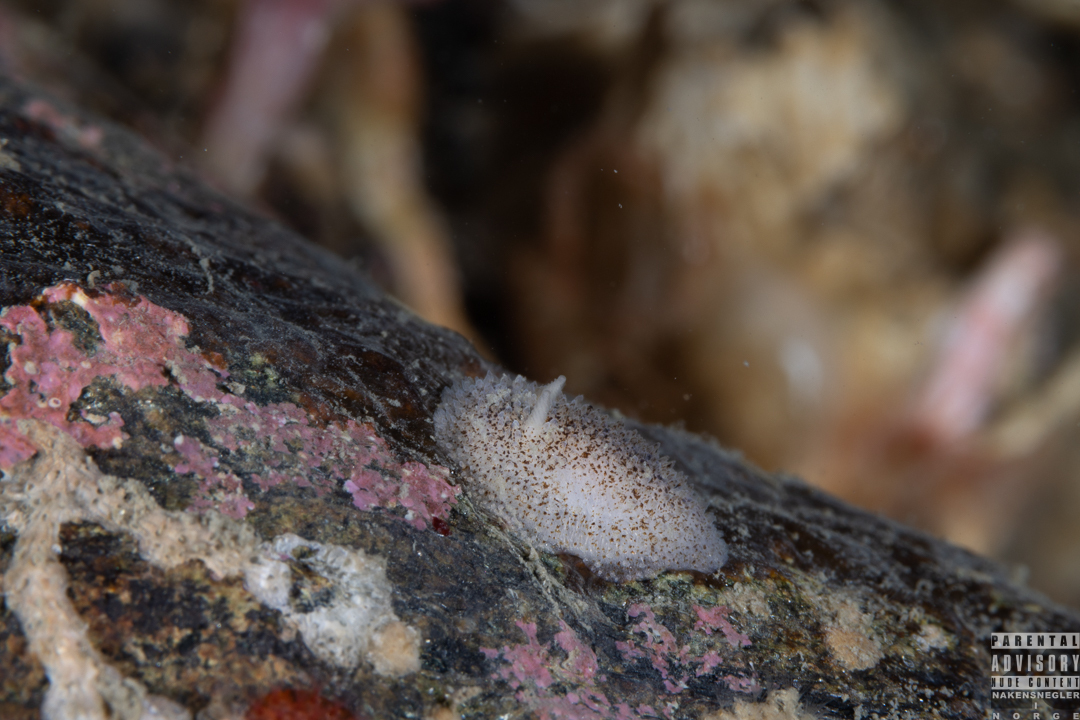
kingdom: Animalia
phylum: Mollusca
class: Gastropoda
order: Nudibranchia
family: Onchidorididae
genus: Atalodoris
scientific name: Atalodoris pusilla
